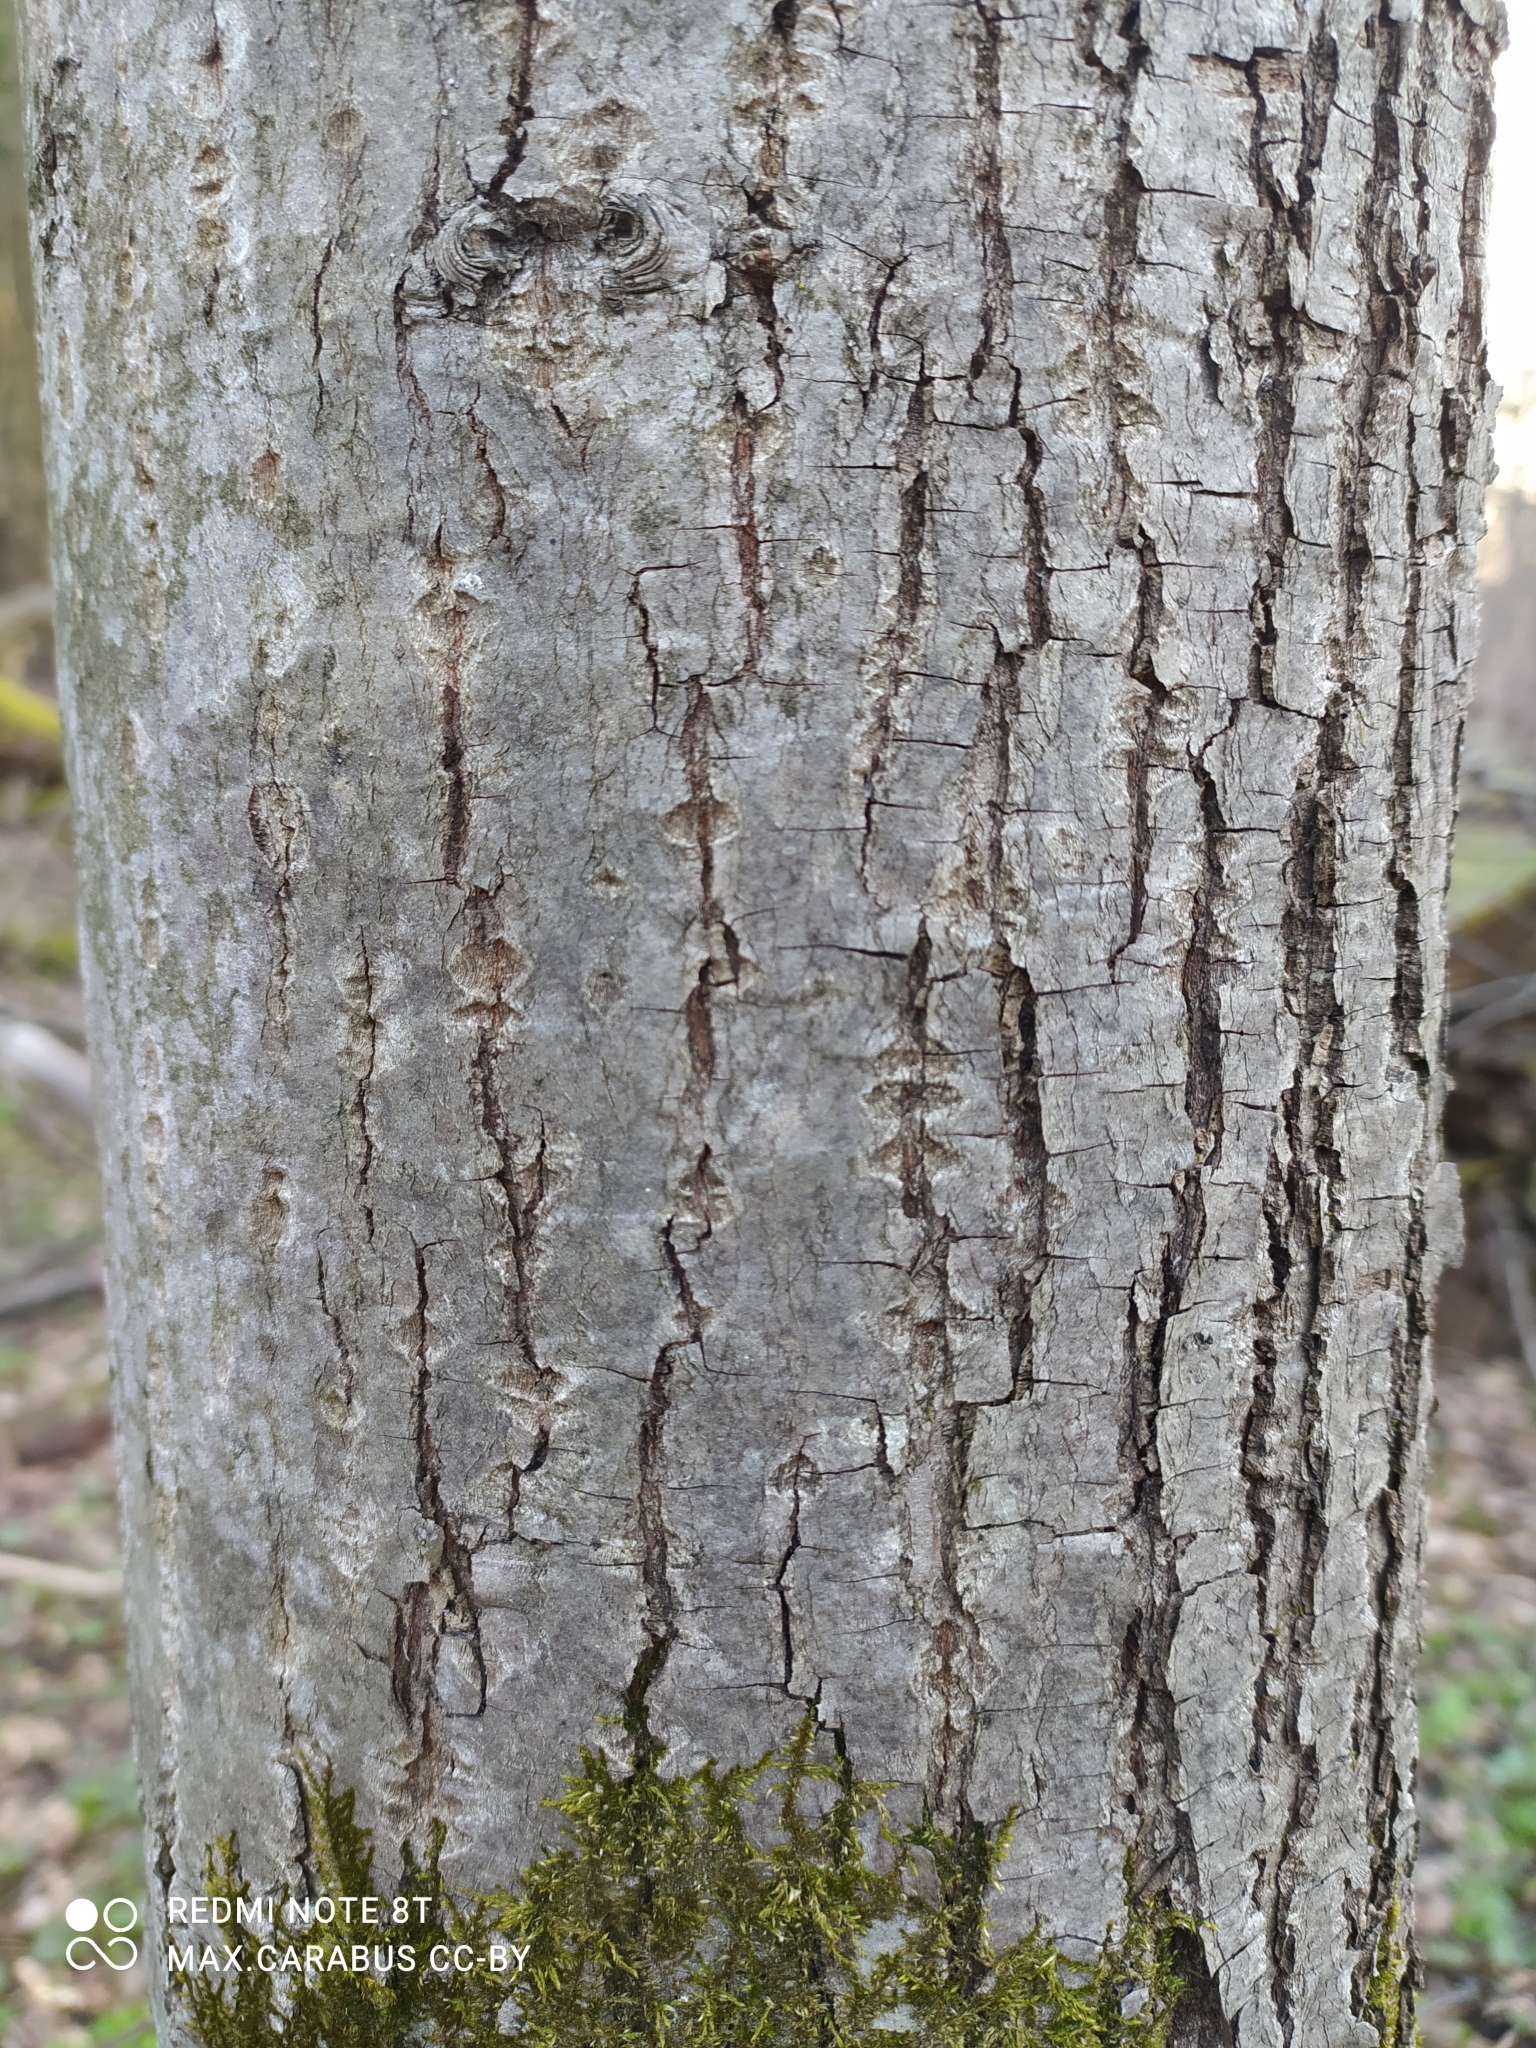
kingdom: Plantae
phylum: Tracheophyta
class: Magnoliopsida
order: Malvales
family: Malvaceae
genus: Tilia
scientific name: Tilia cordata
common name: Small-leaved lime
